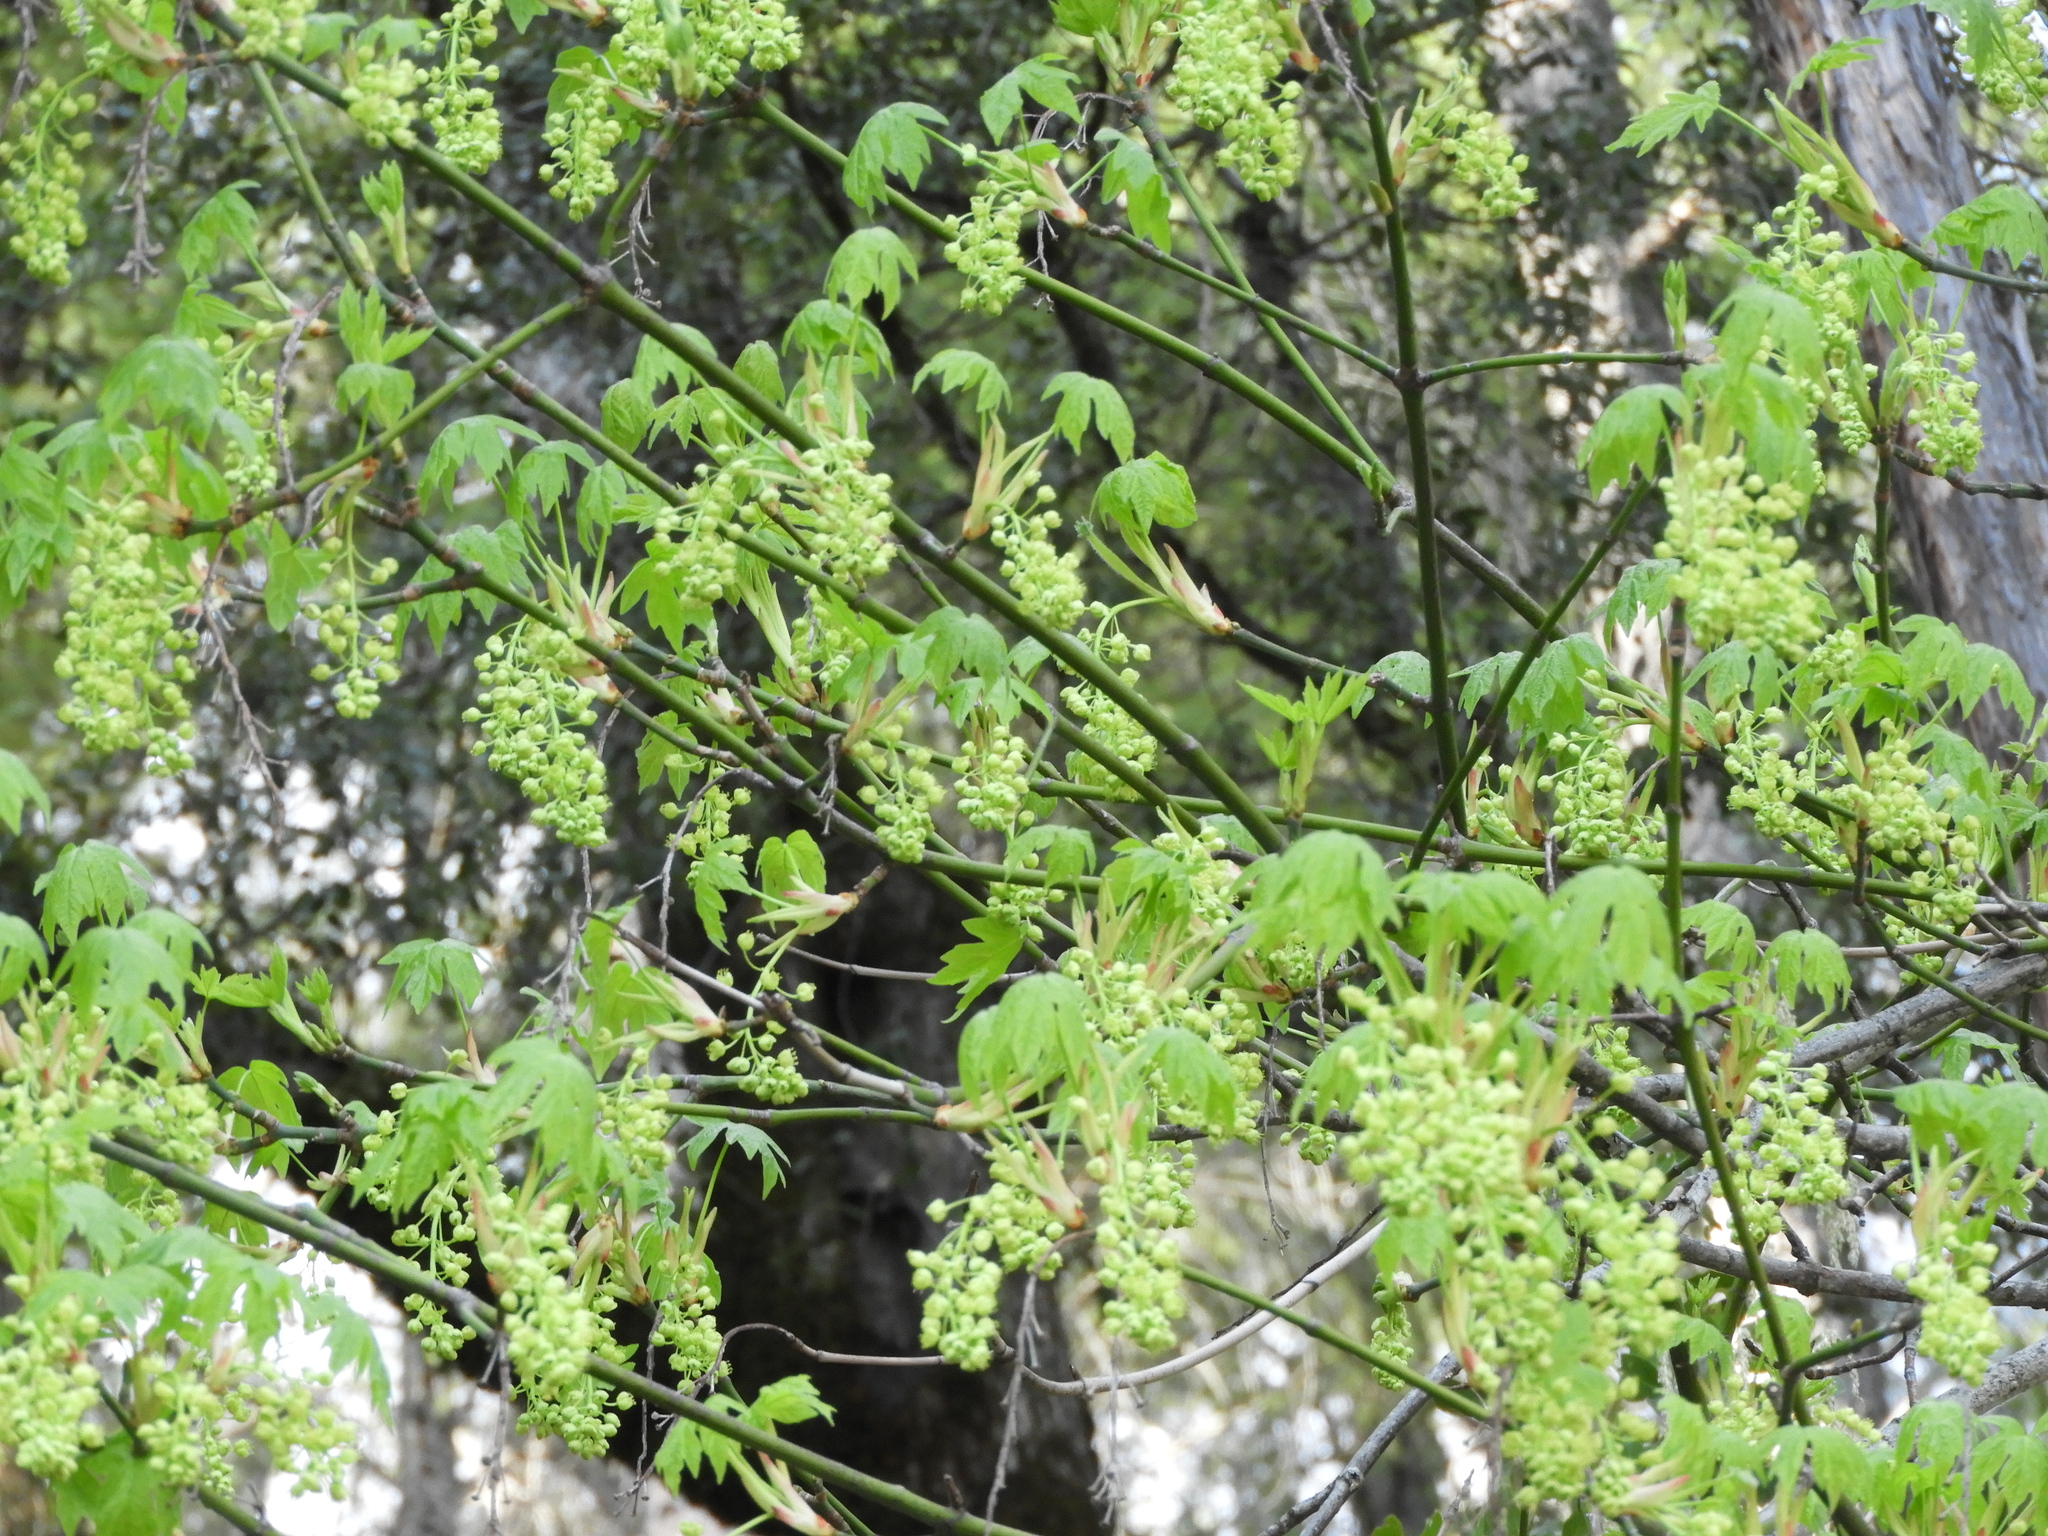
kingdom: Plantae
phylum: Tracheophyta
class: Magnoliopsida
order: Sapindales
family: Sapindaceae
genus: Acer
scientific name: Acer macrophyllum
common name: Oregon maple
